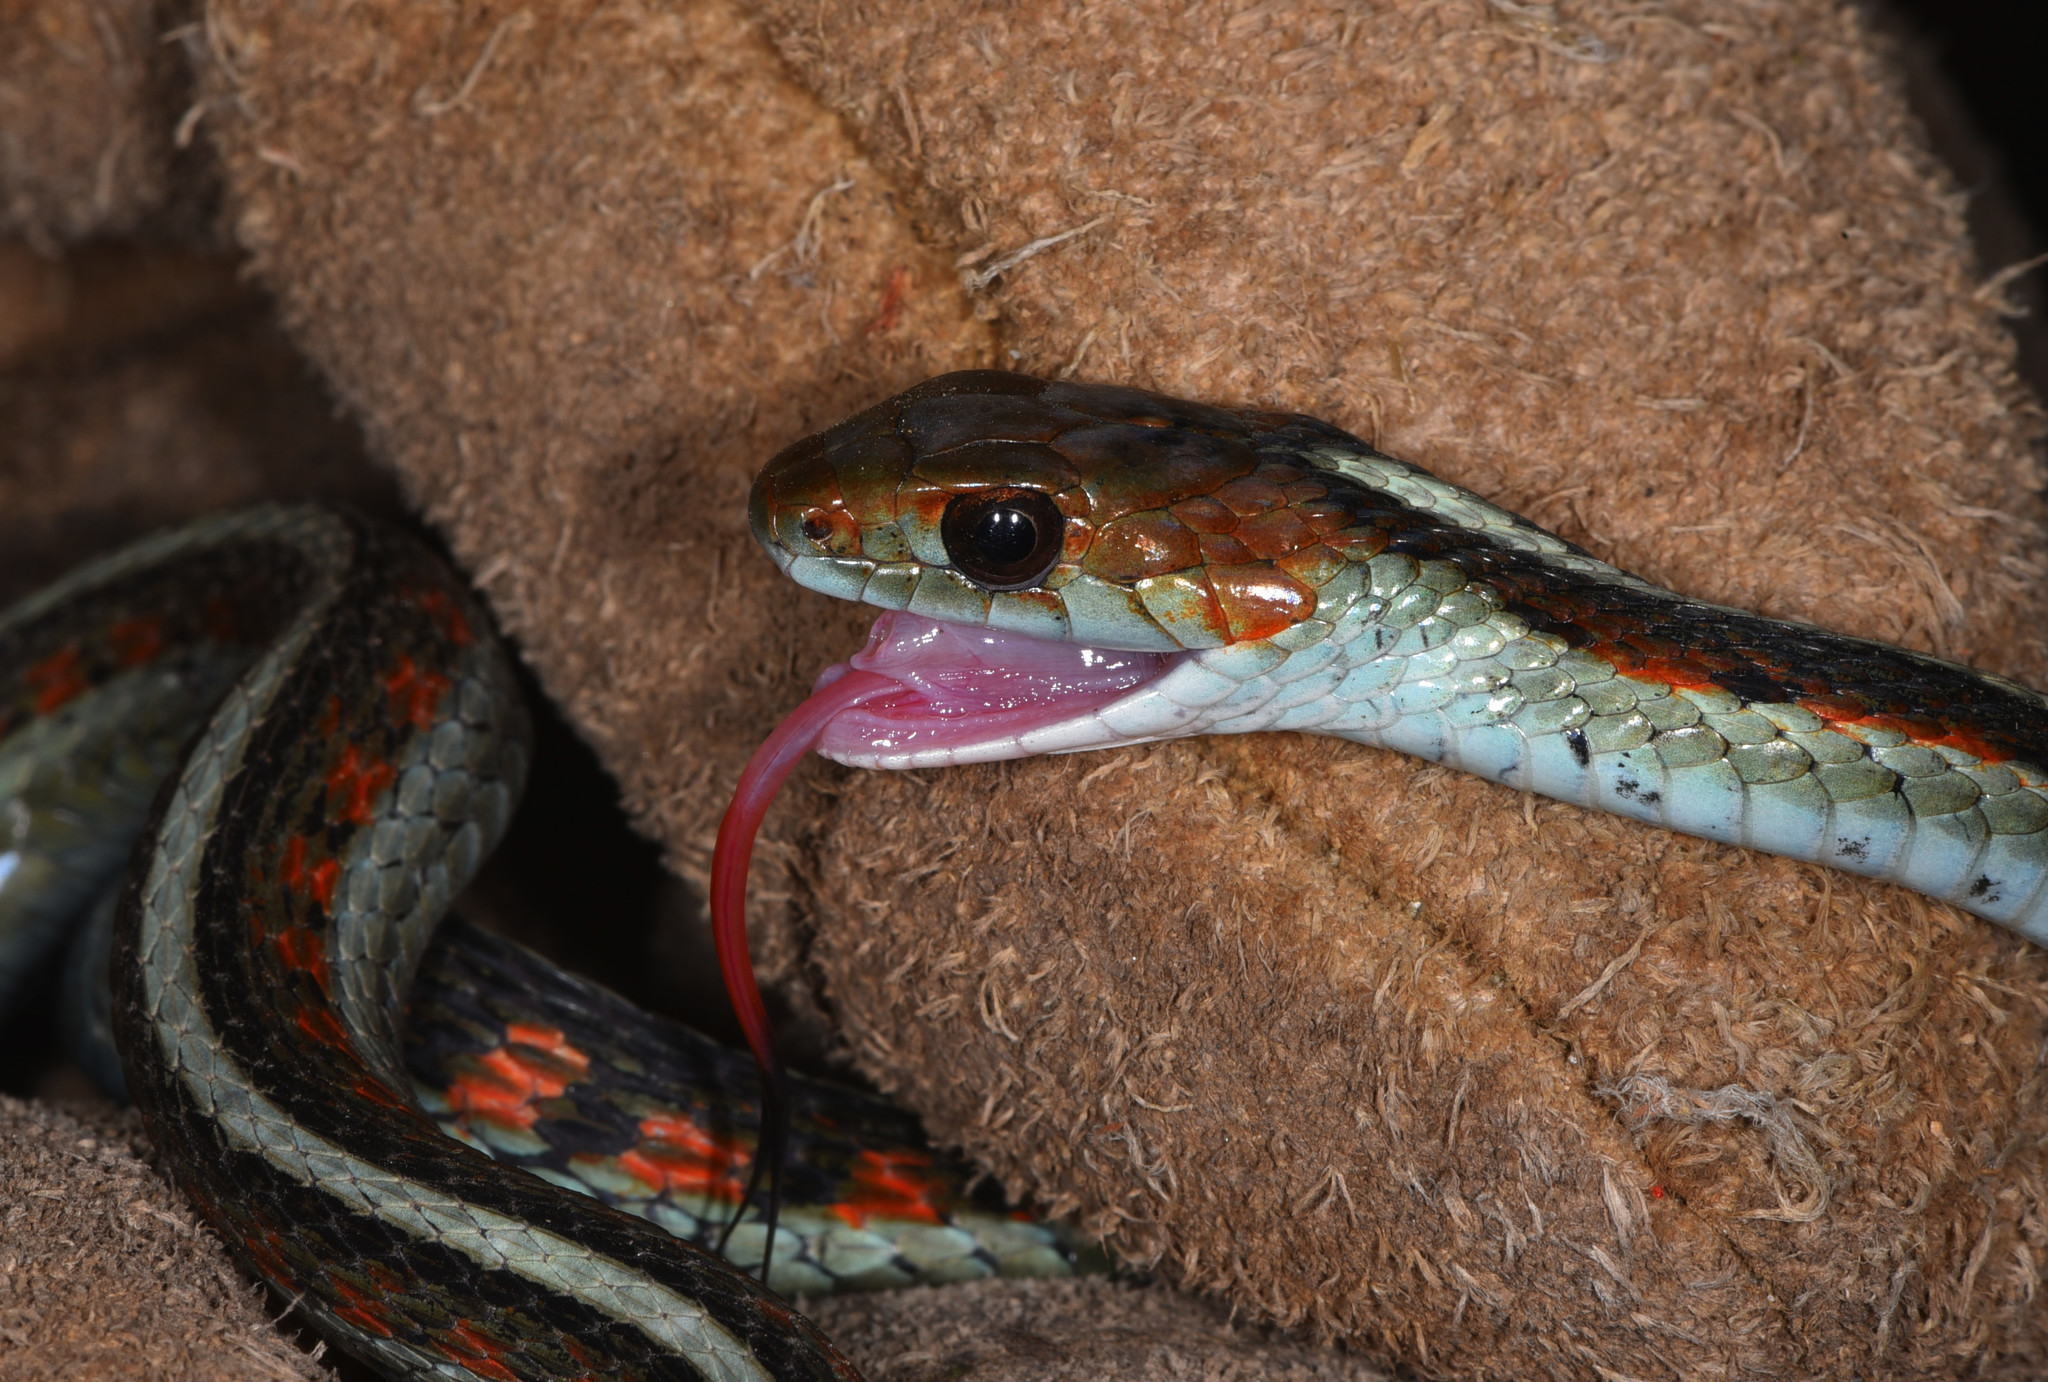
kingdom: Animalia
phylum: Chordata
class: Squamata
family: Colubridae
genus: Thamnophis
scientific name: Thamnophis sirtalis
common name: Common garter snake
